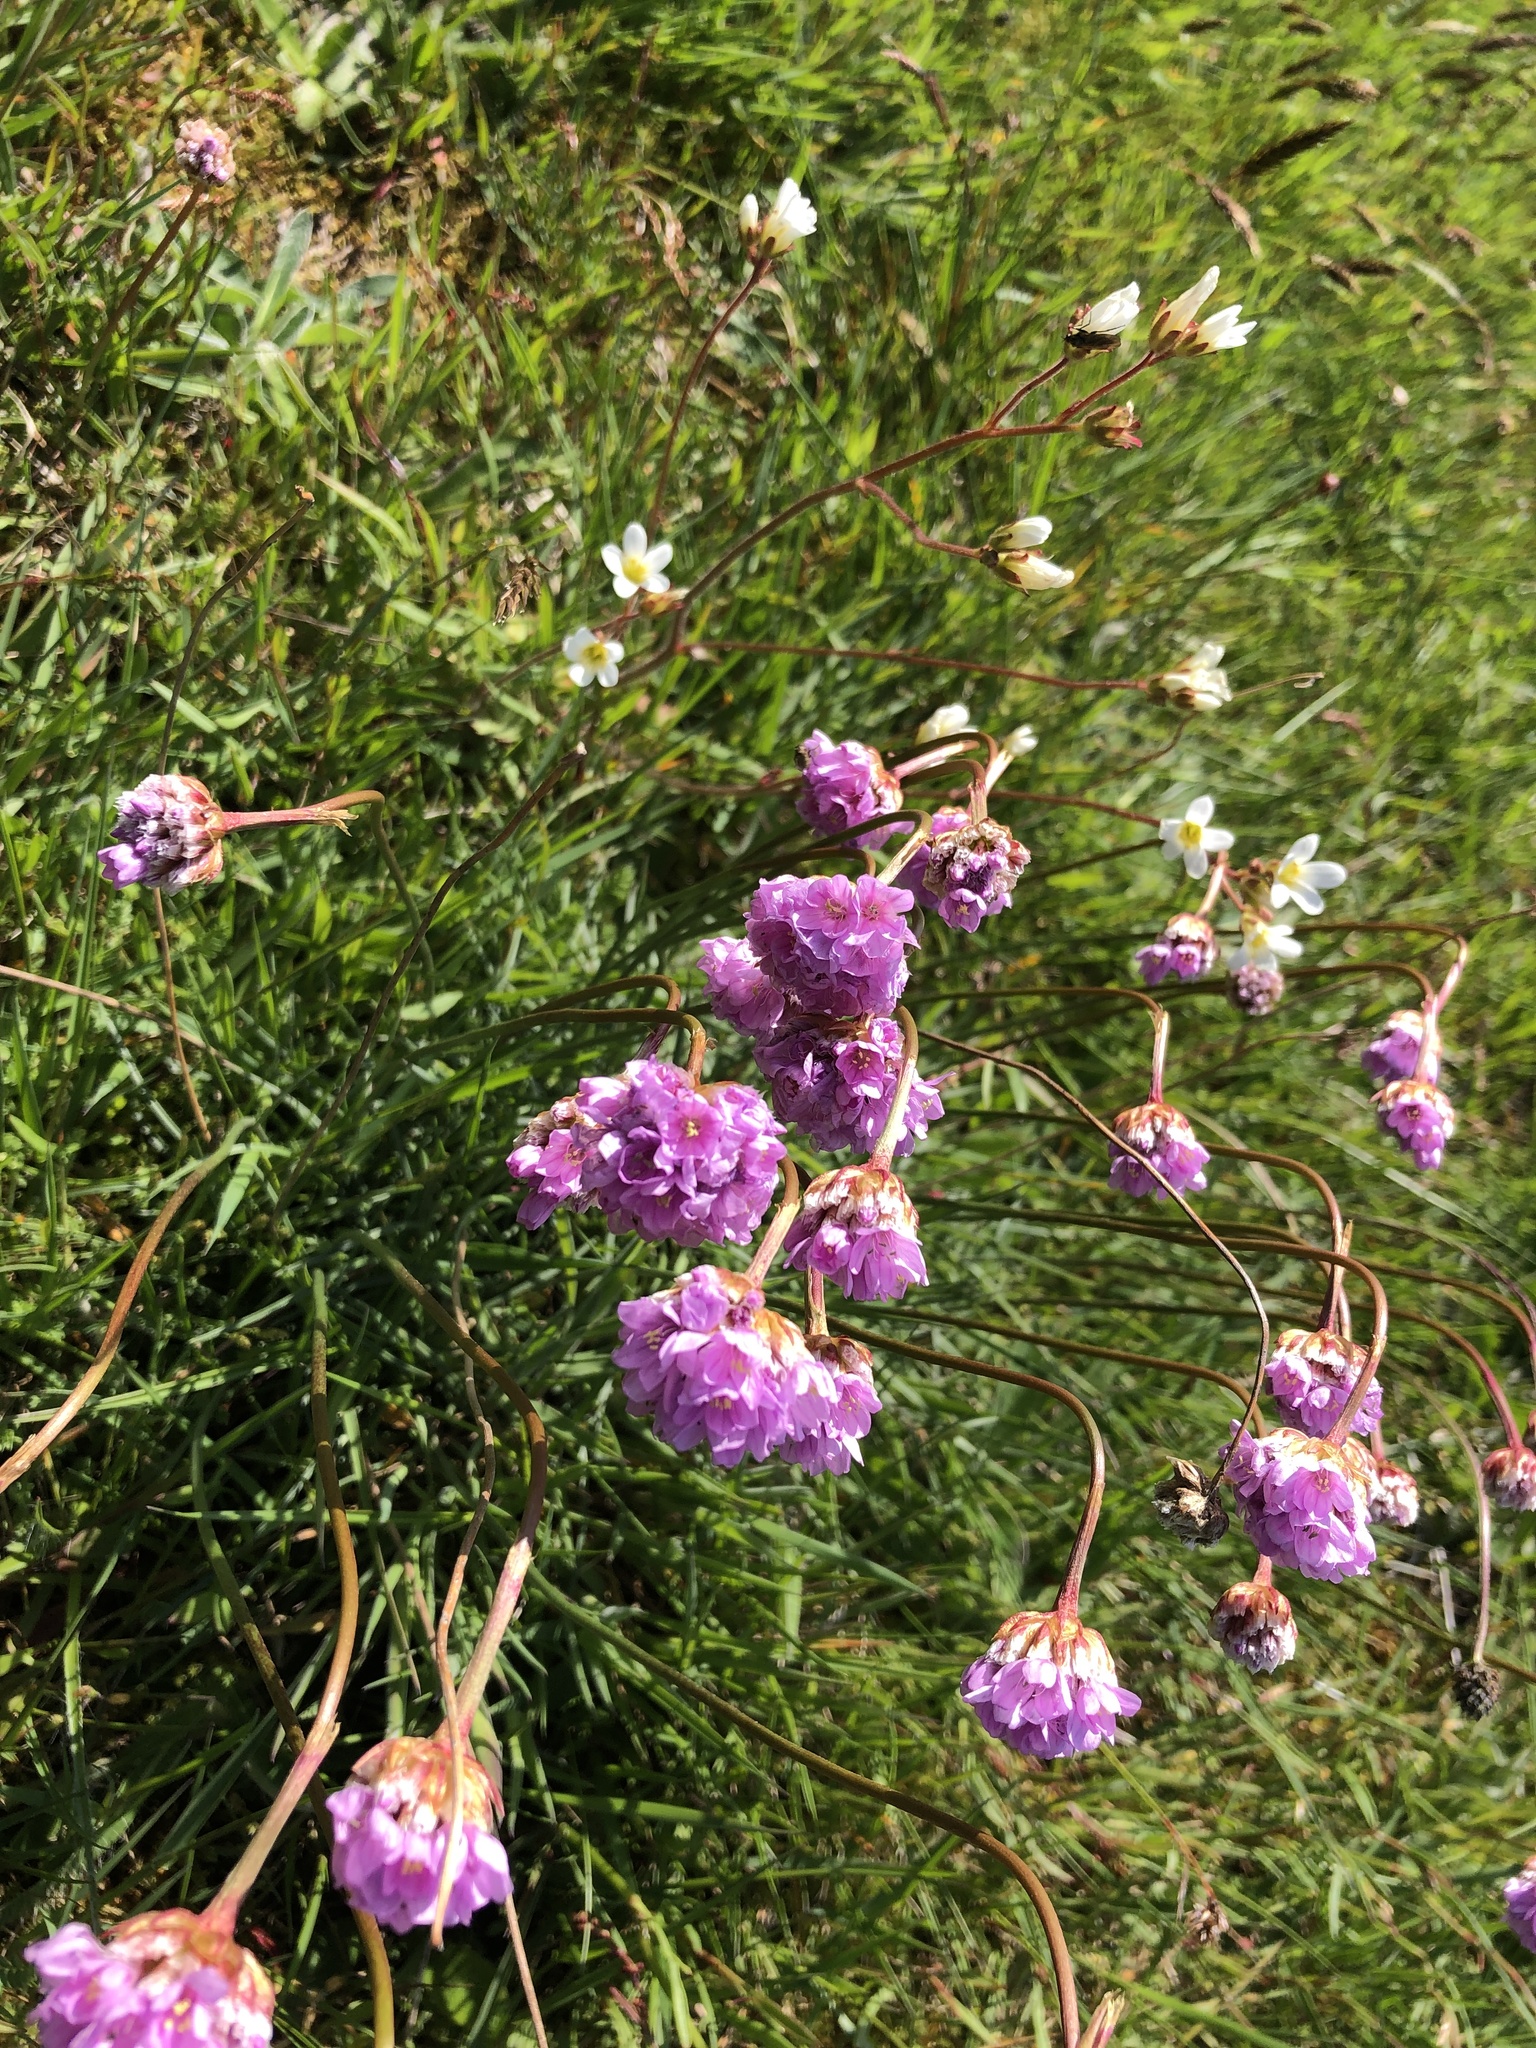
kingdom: Plantae
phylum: Tracheophyta
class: Magnoliopsida
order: Caryophyllales
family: Plumbaginaceae
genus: Armeria
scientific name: Armeria maritima
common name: Thrift
